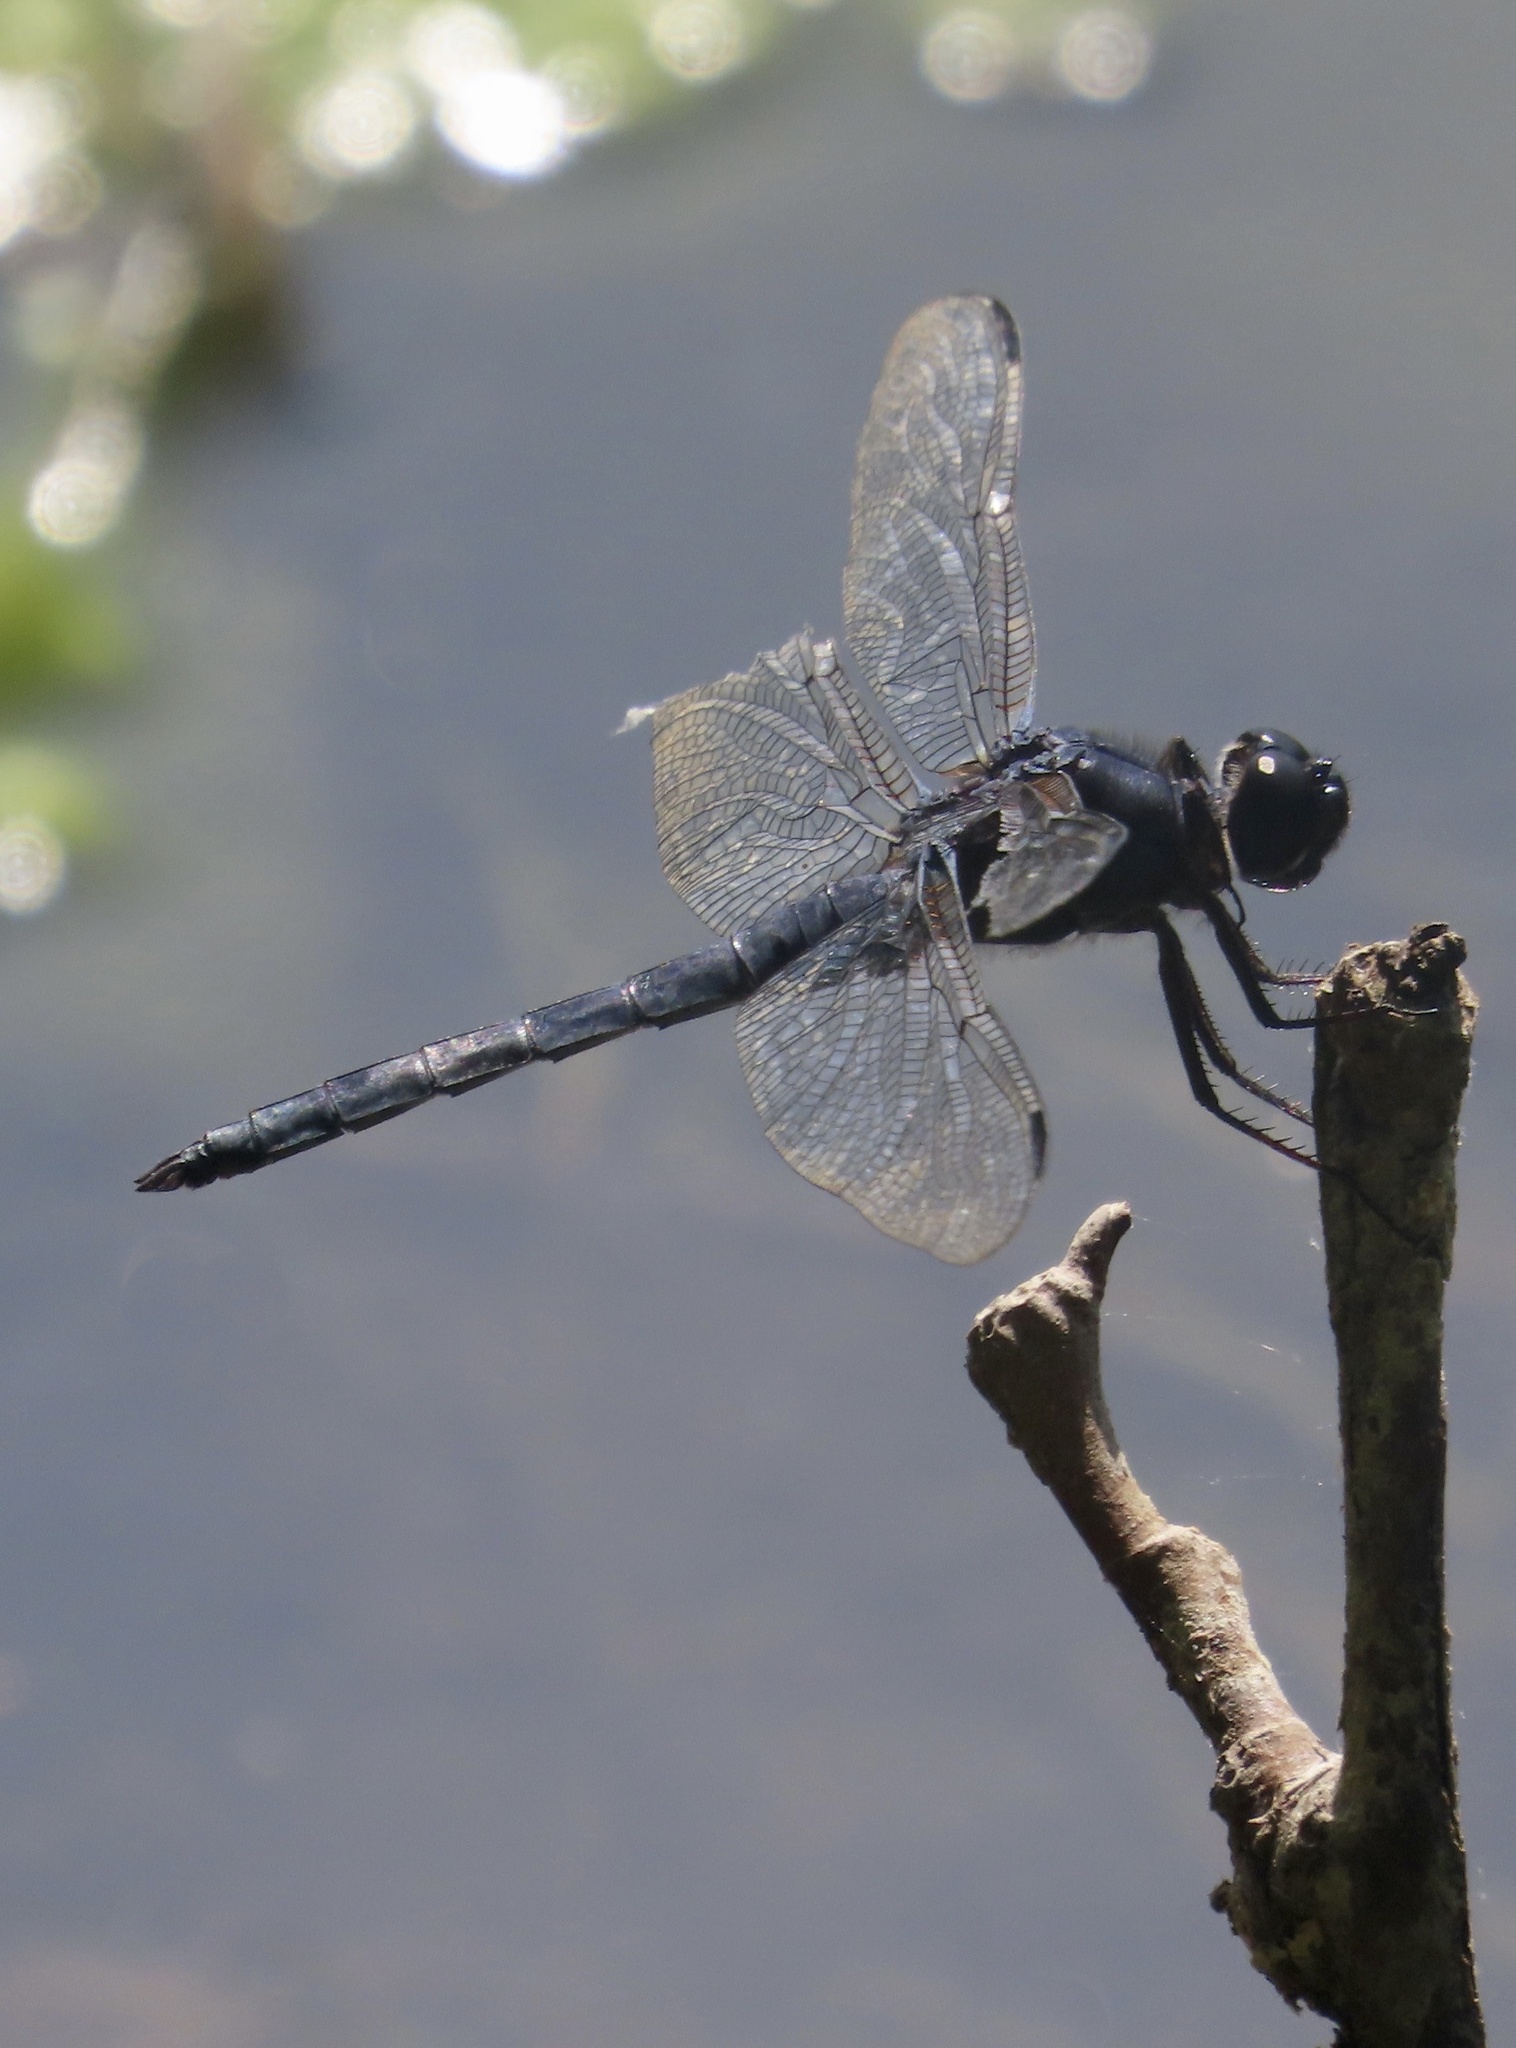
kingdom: Animalia
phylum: Arthropoda
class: Insecta
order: Odonata
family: Libellulidae
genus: Libellula
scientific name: Libellula incesta
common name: Slaty skimmer
